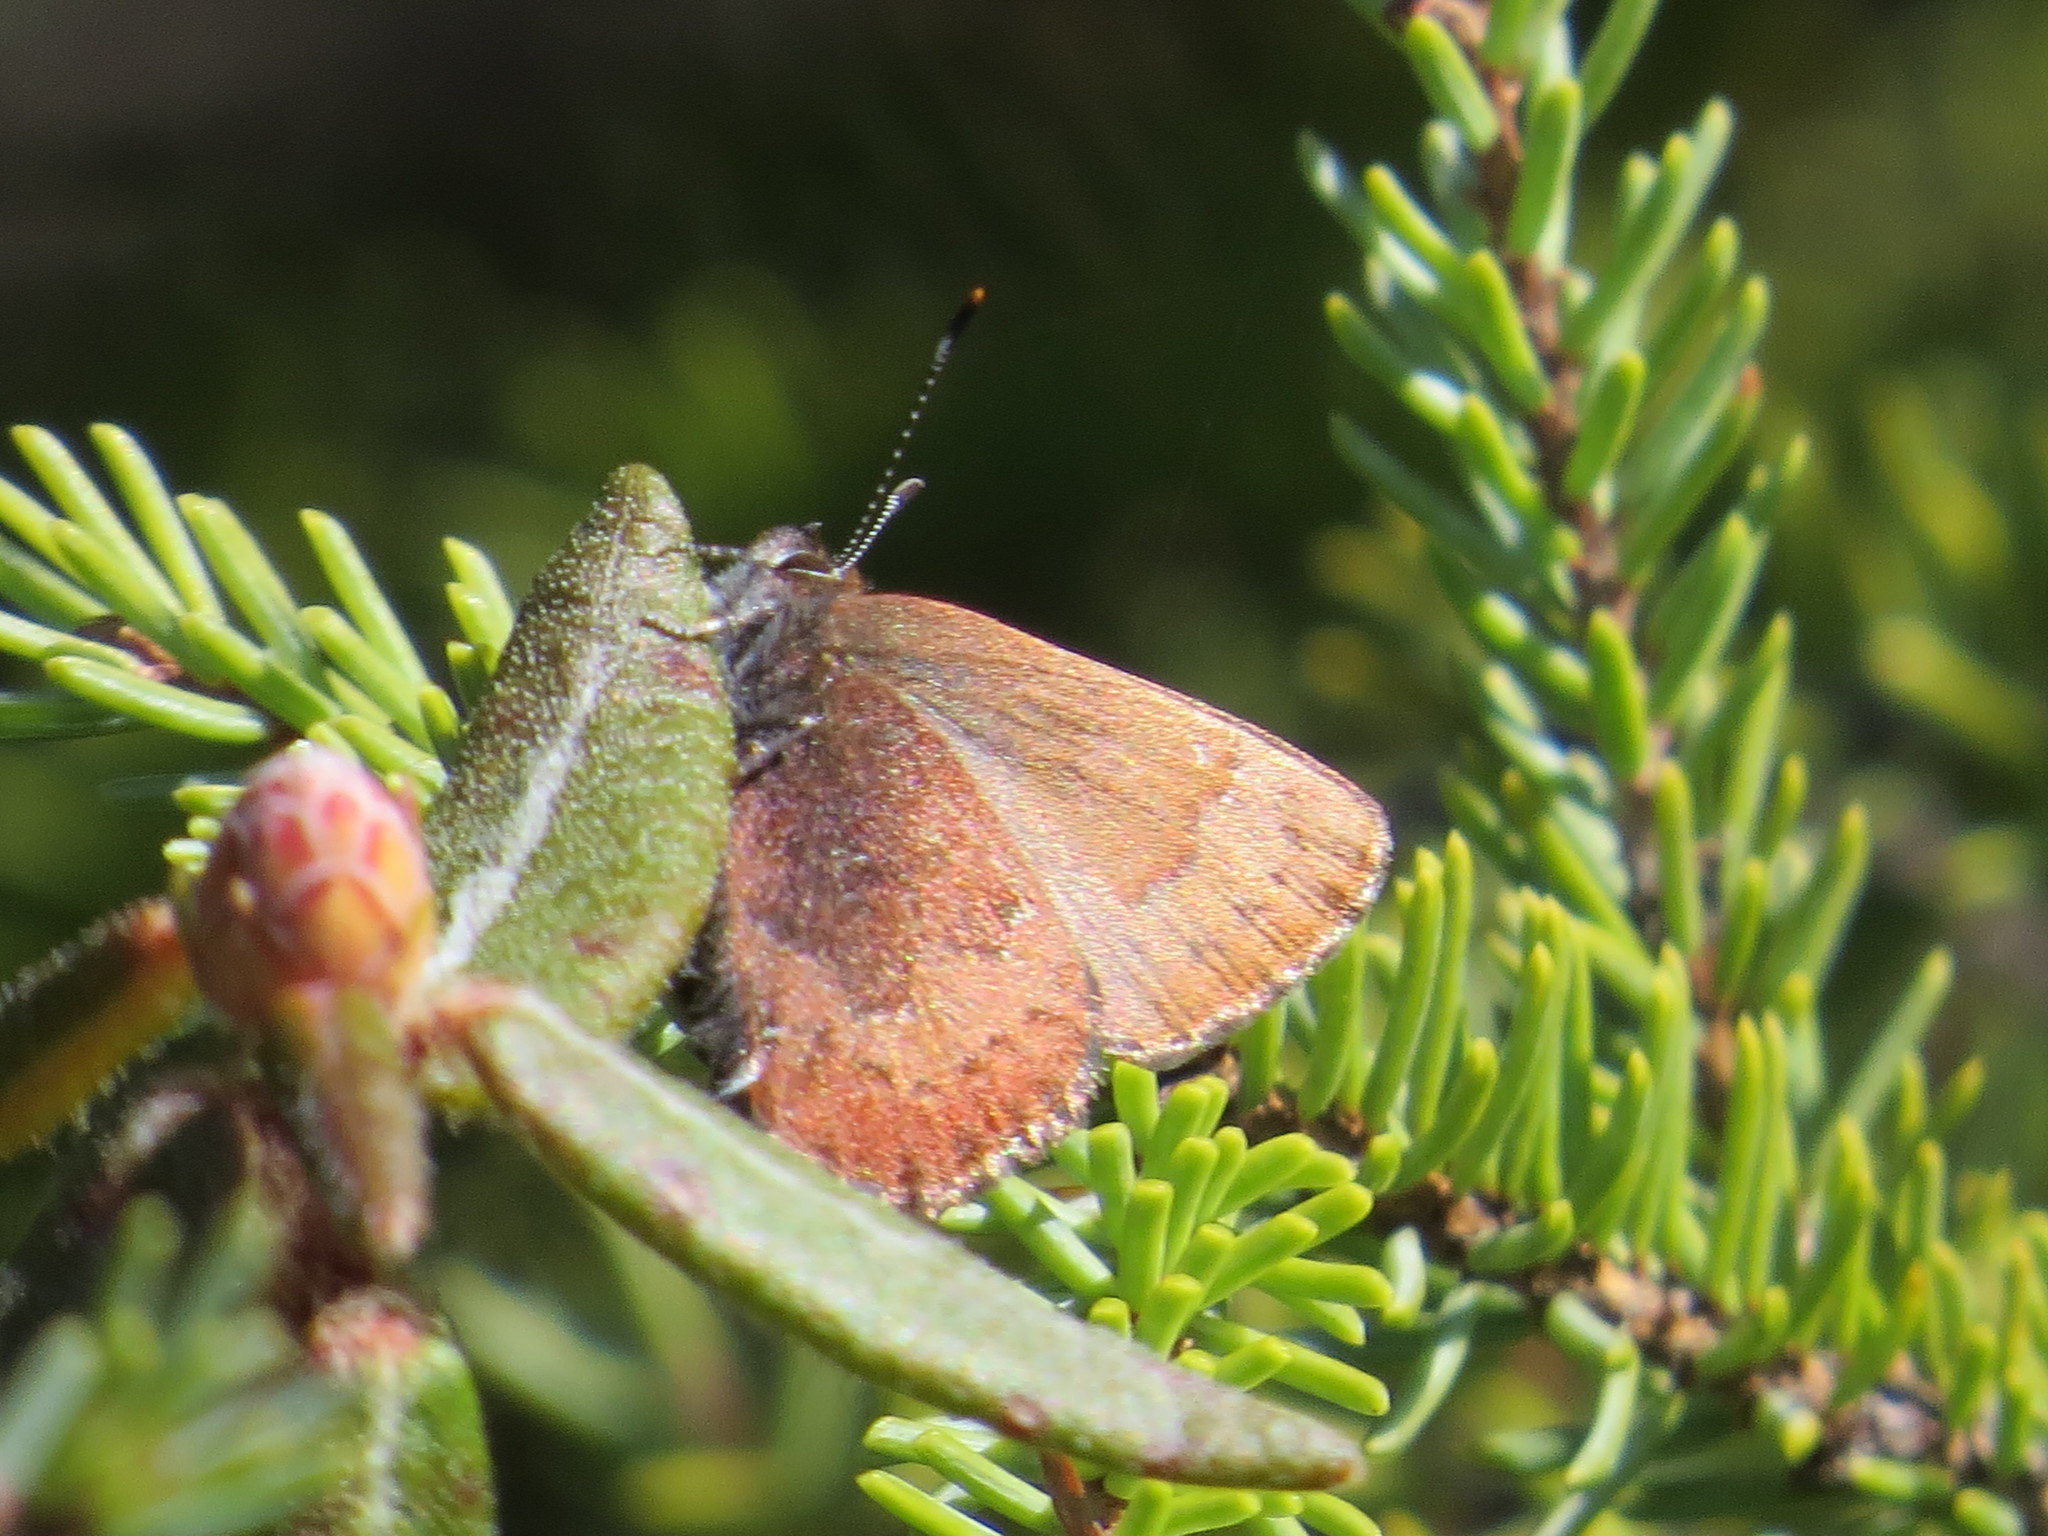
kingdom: Animalia
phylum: Arthropoda
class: Insecta
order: Lepidoptera
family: Lycaenidae
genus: Incisalia
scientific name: Incisalia irioides
